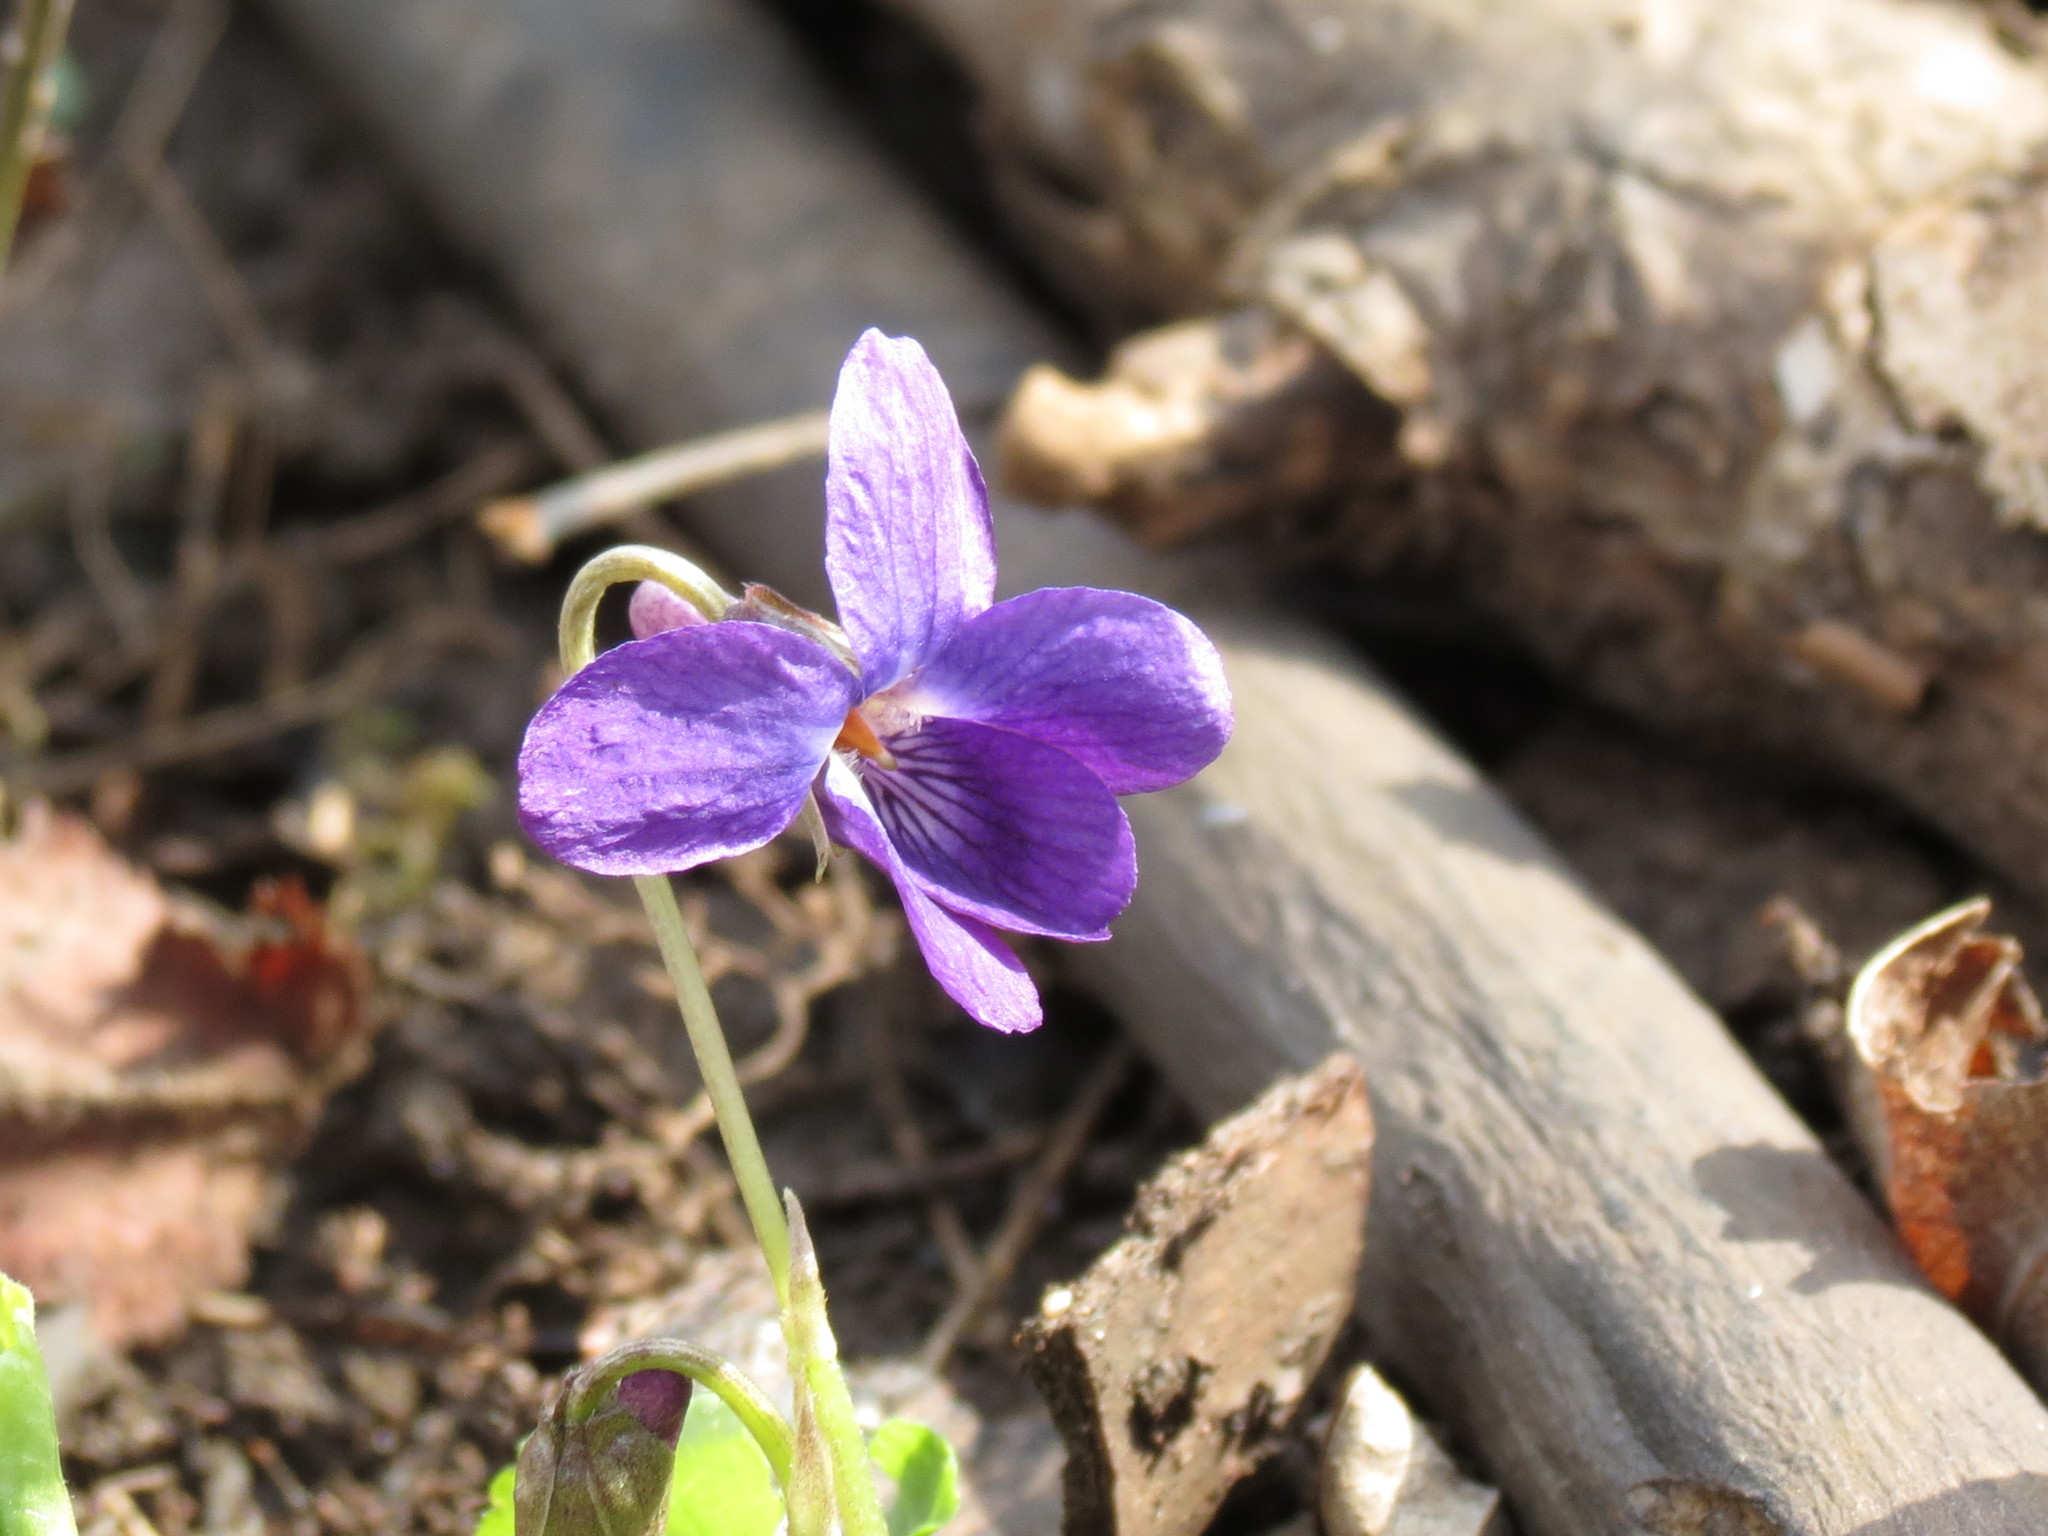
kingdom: Plantae
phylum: Tracheophyta
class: Magnoliopsida
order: Malpighiales
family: Violaceae
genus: Viola
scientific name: Viola odorata
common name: Sweet violet
